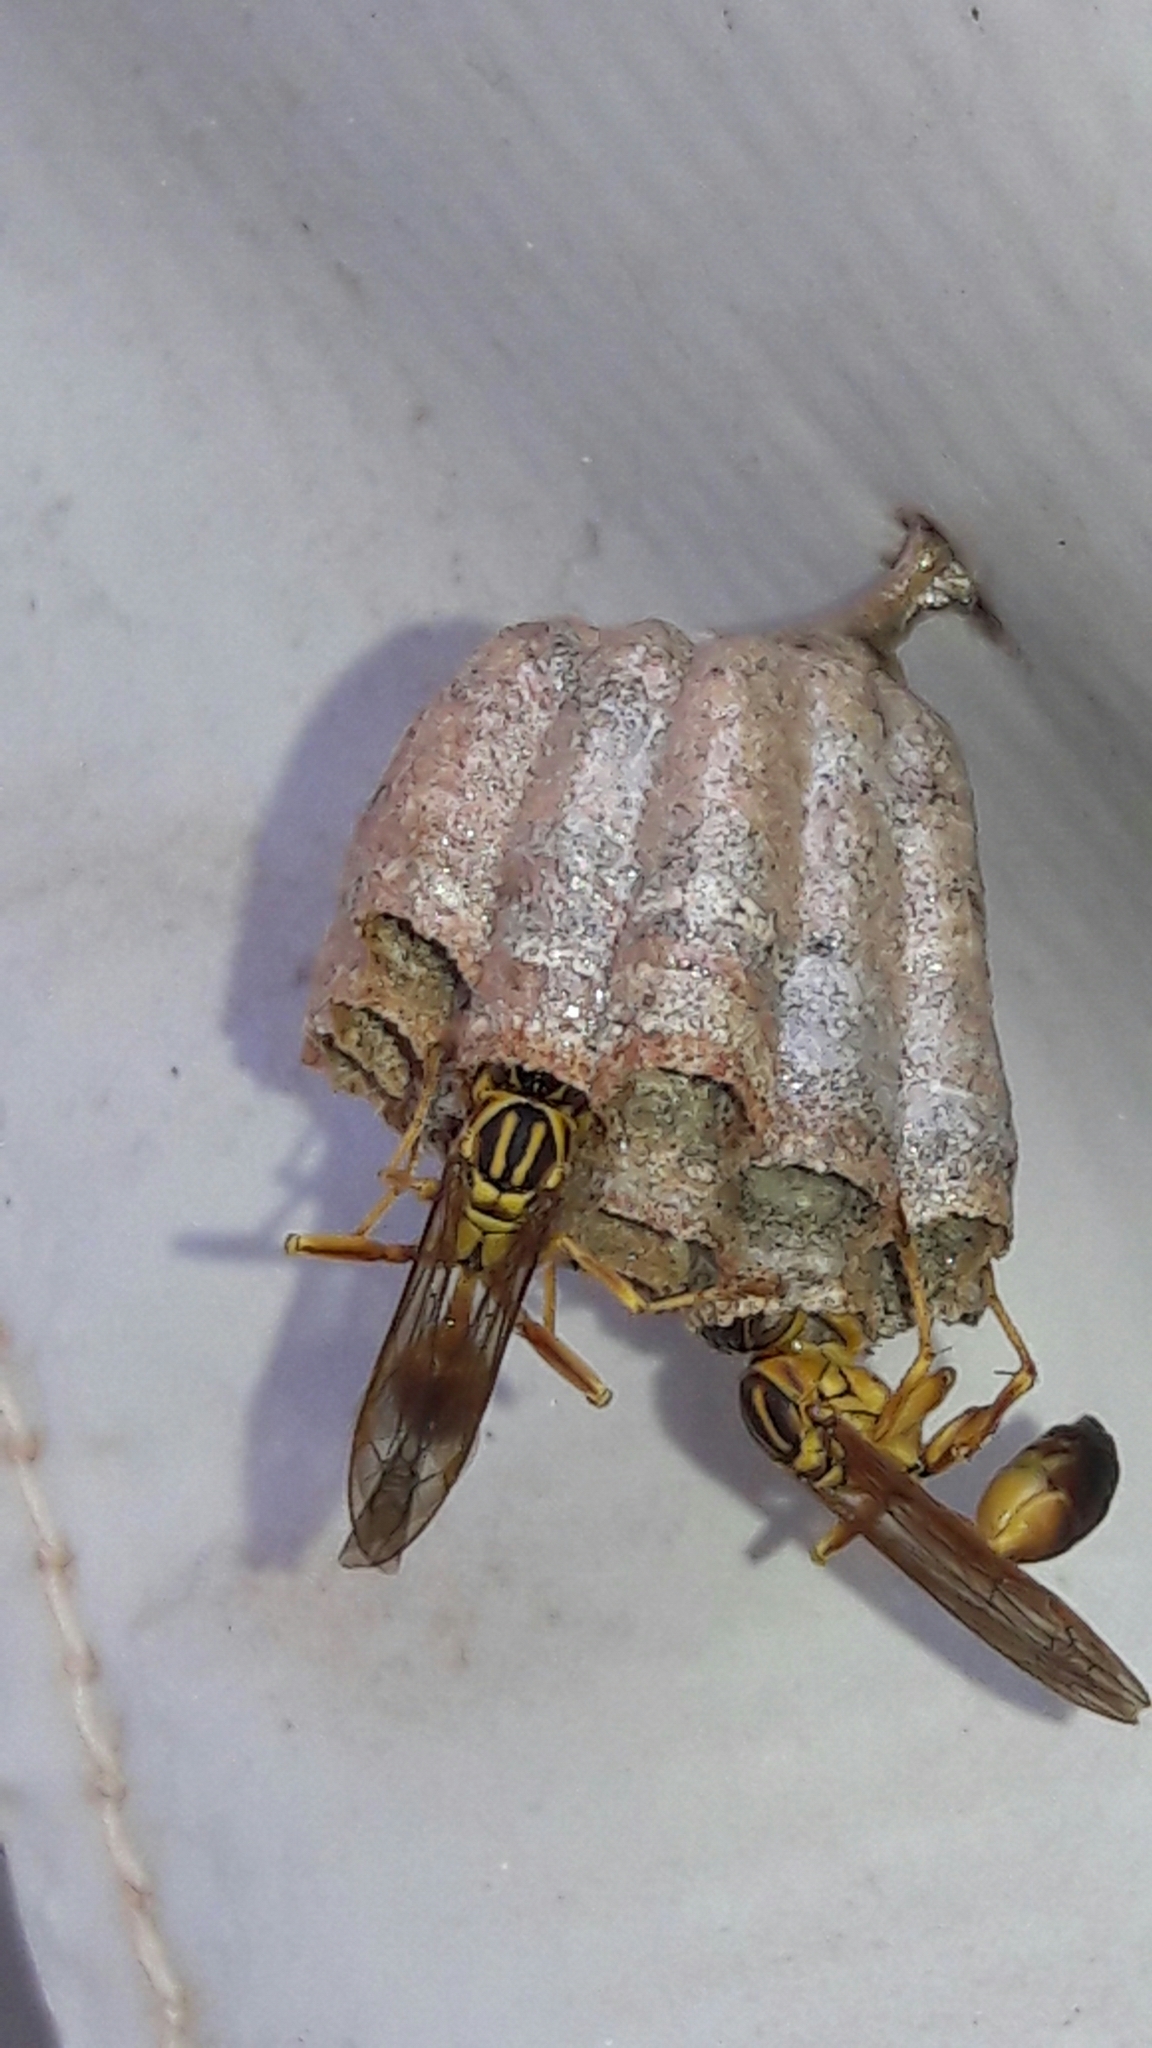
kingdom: Animalia
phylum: Arthropoda
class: Insecta
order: Hymenoptera
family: Vespidae
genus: Mischocyttarus
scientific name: Mischocyttarus cerberus
